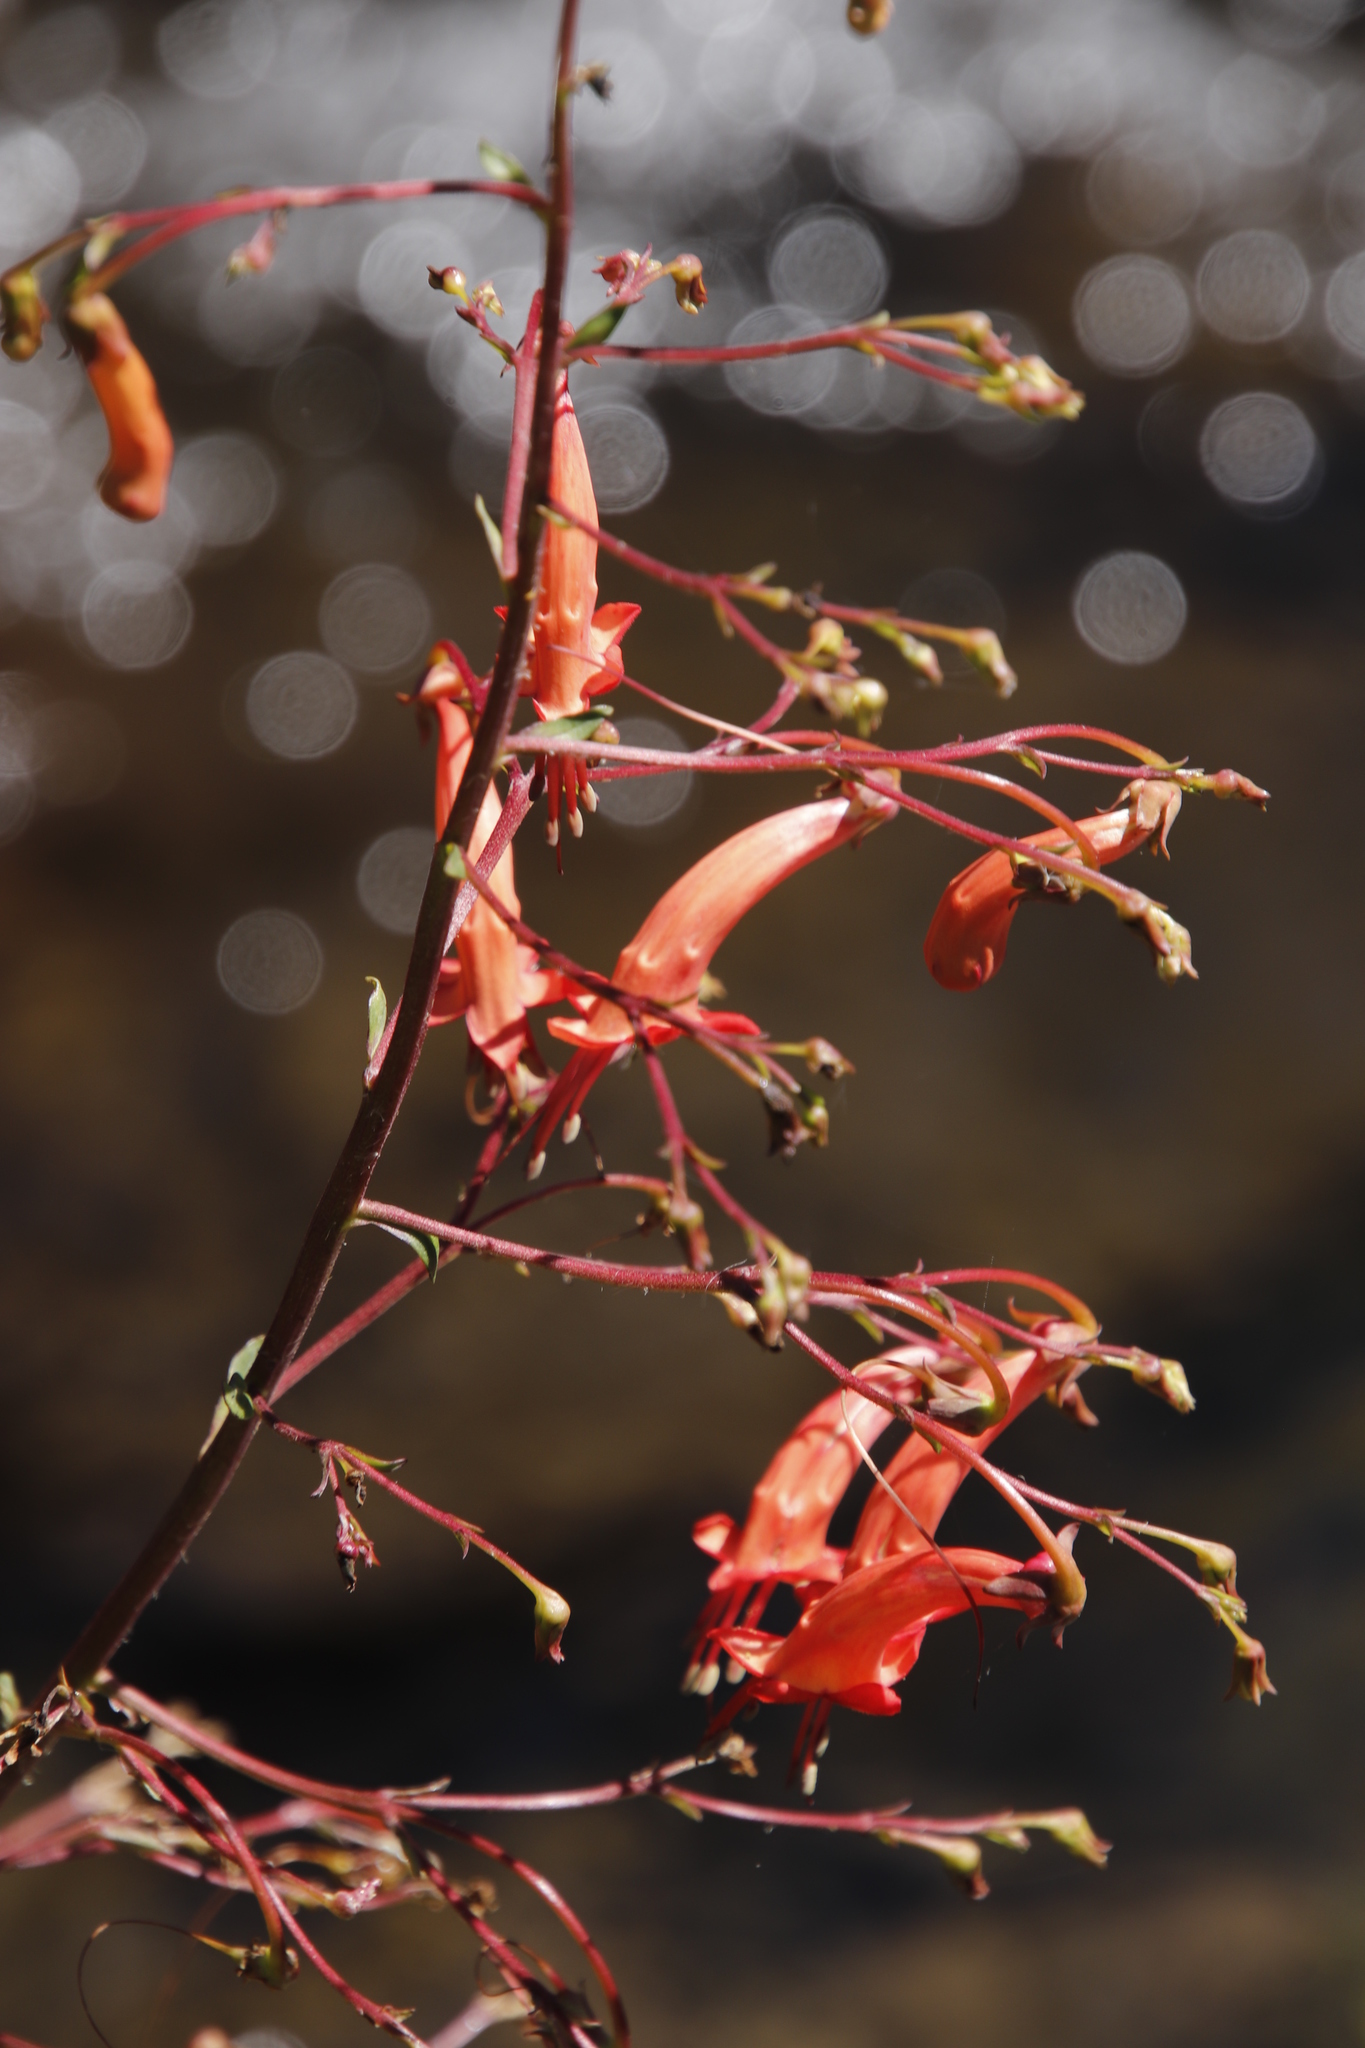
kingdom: Plantae
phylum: Tracheophyta
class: Magnoliopsida
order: Lamiales
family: Scrophulariaceae
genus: Phygelius
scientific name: Phygelius capensis
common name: Cape figwort
